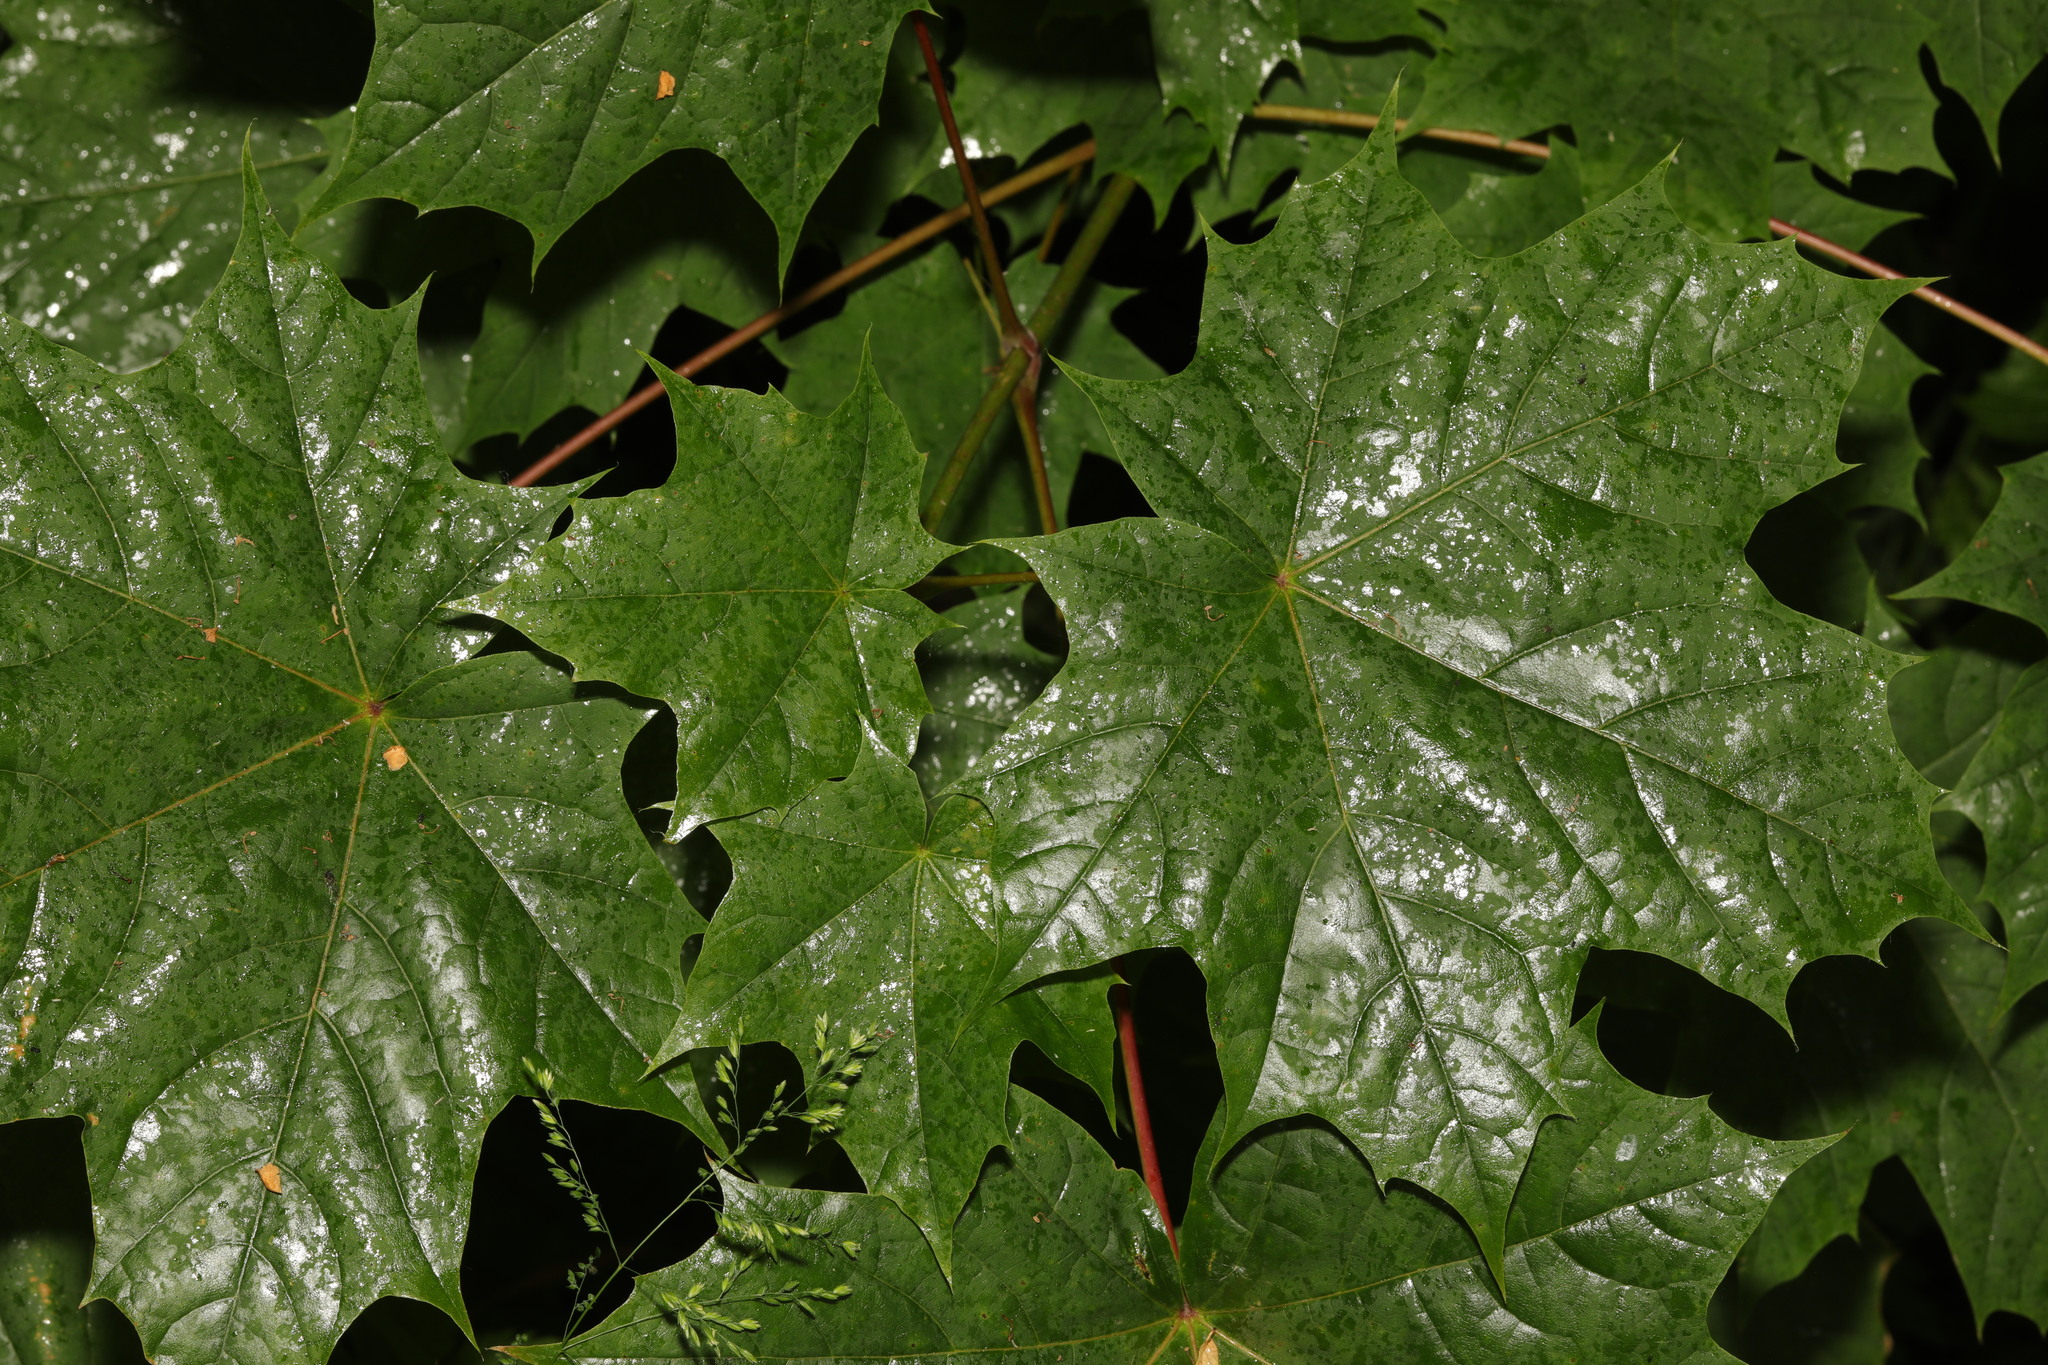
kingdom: Plantae
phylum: Tracheophyta
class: Magnoliopsida
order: Sapindales
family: Sapindaceae
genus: Acer
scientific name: Acer platanoides
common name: Norway maple
